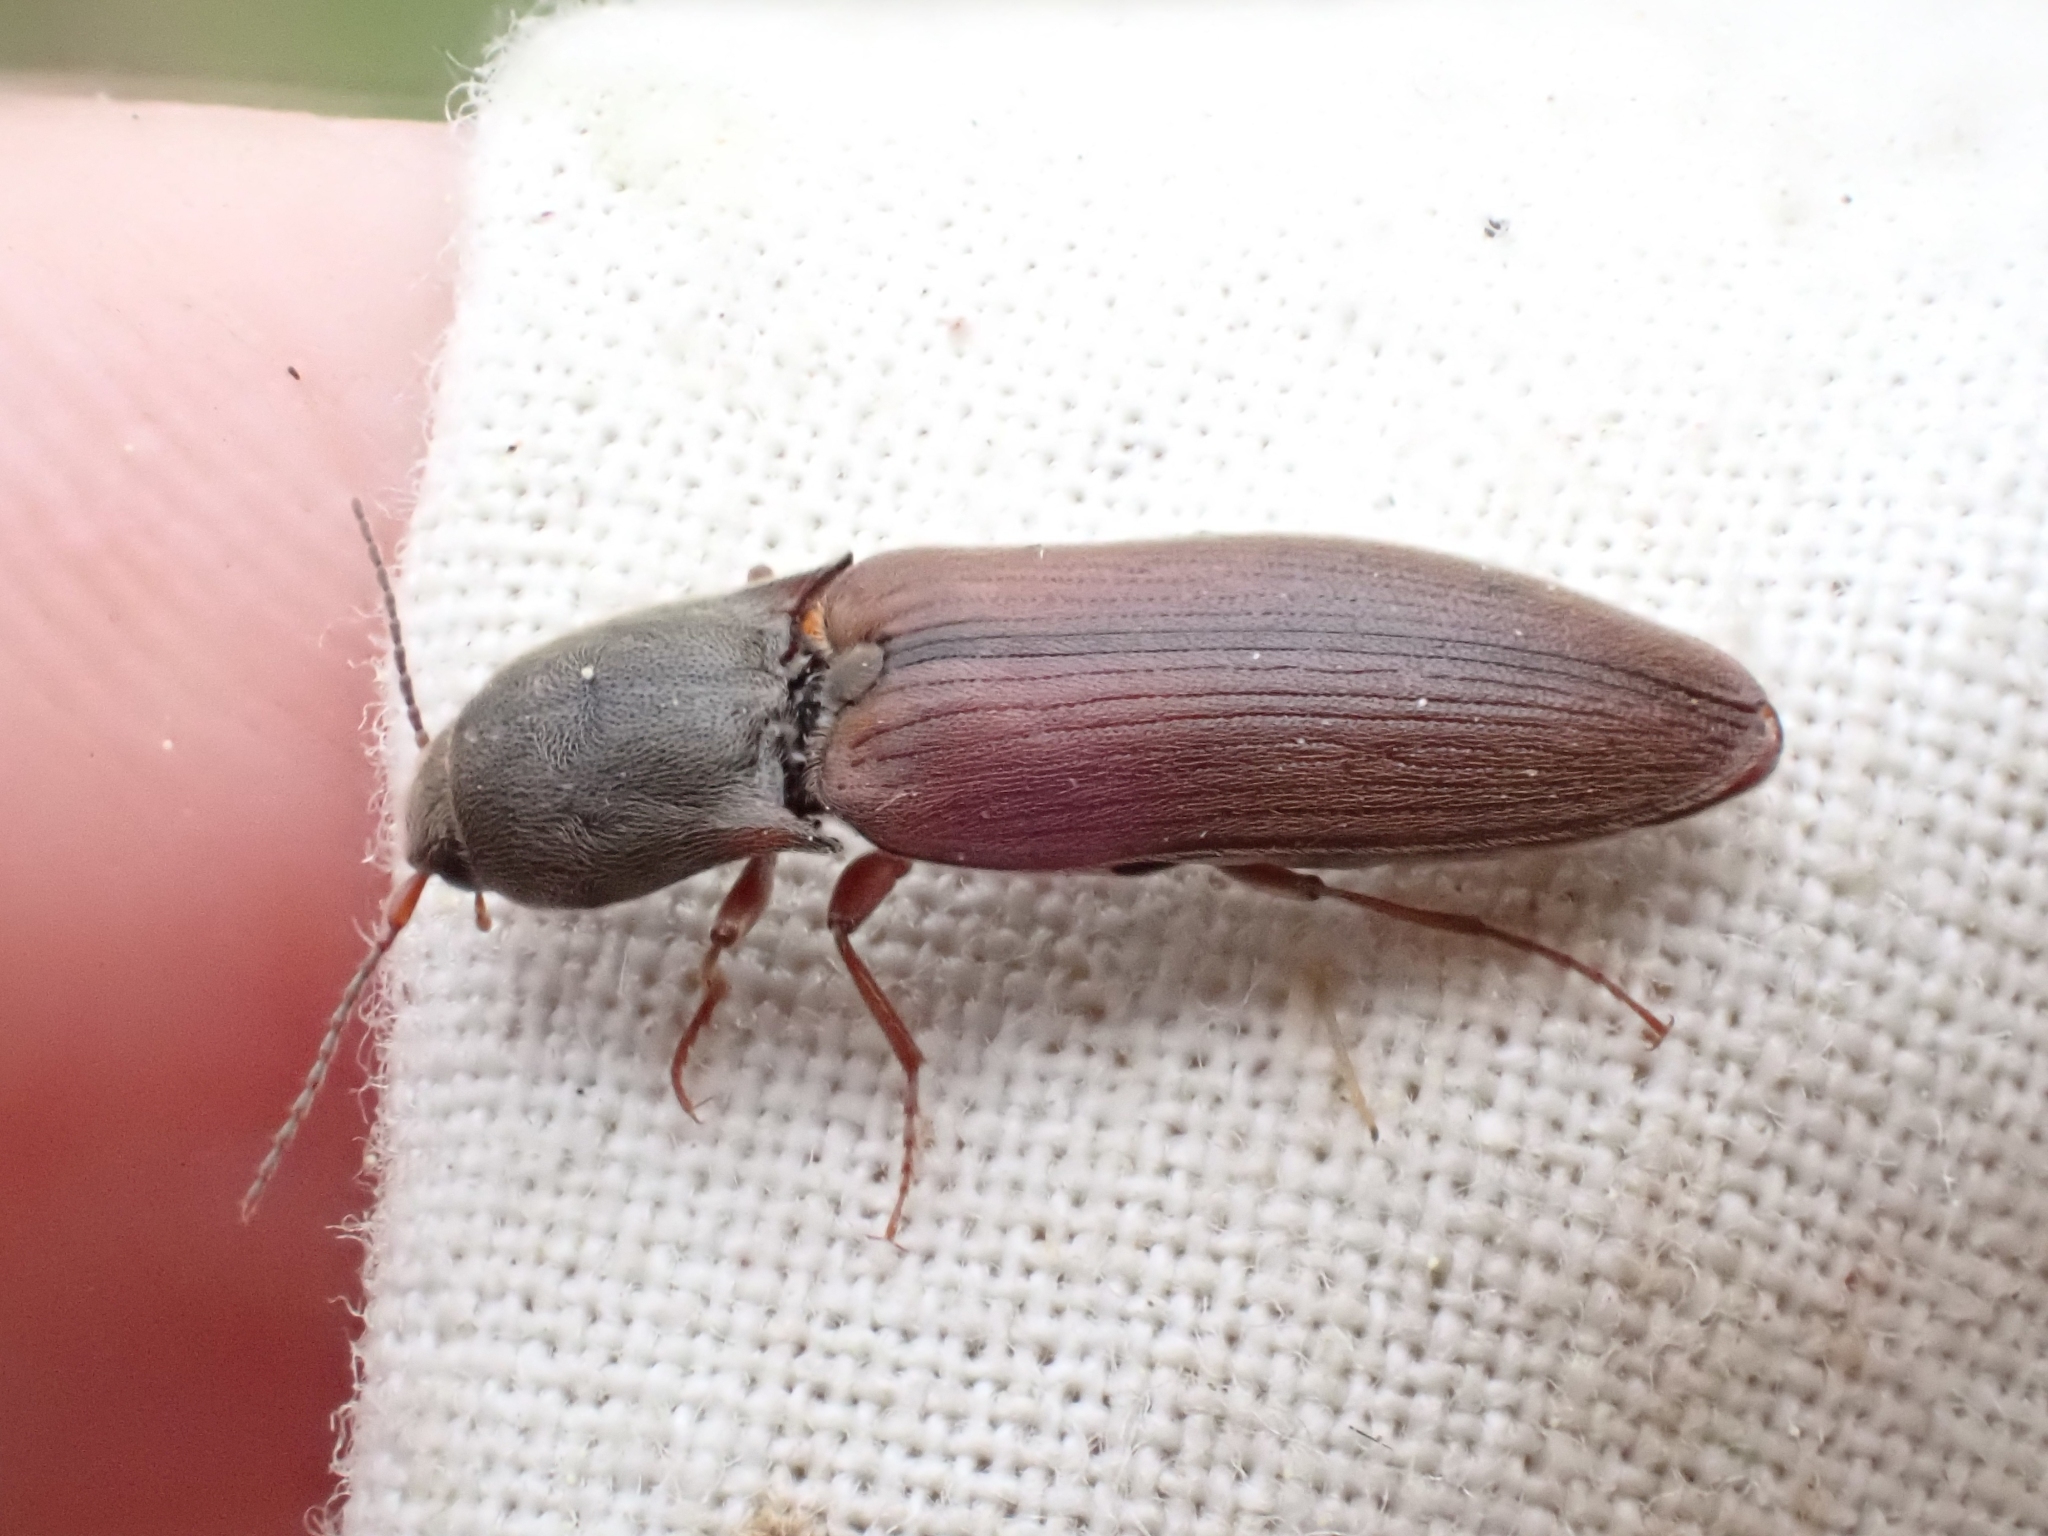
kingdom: Animalia
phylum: Arthropoda
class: Insecta
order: Coleoptera
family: Elateridae
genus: Agriotes
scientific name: Agriotes ferrugineipennis
